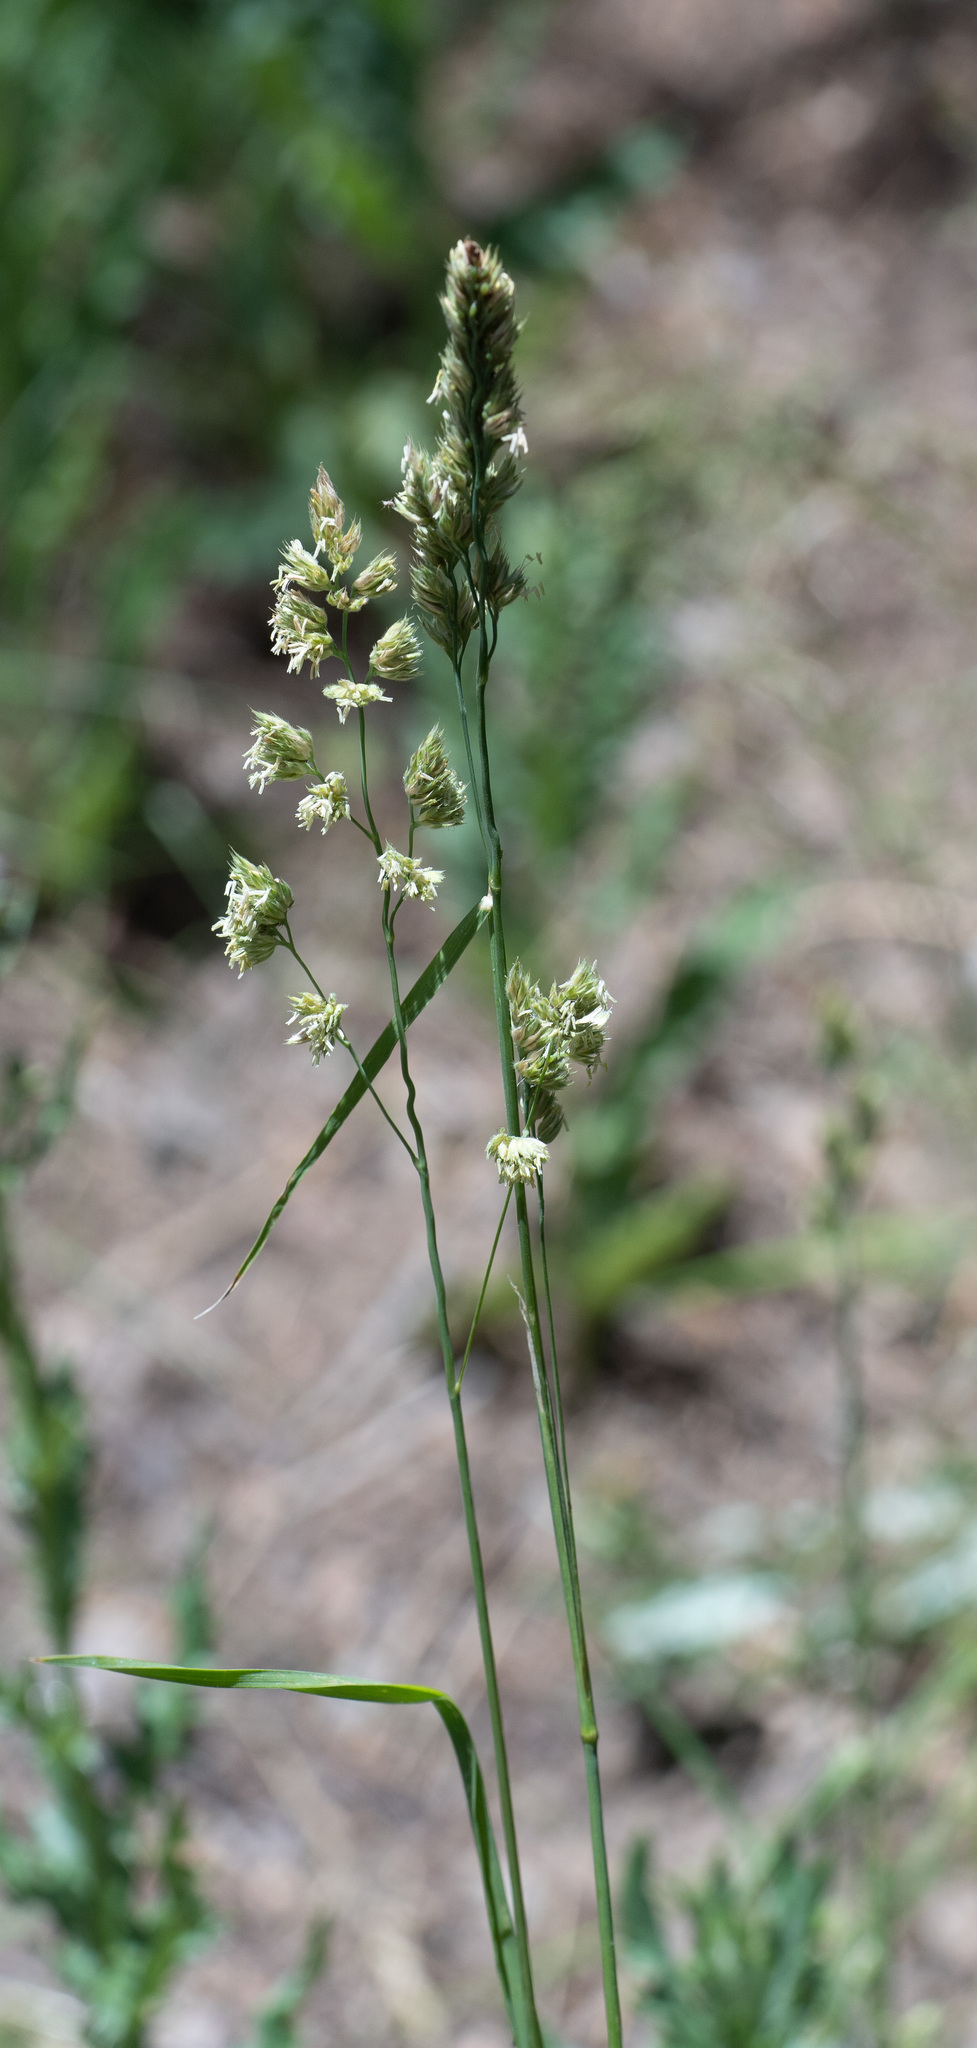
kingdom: Plantae
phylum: Tracheophyta
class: Liliopsida
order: Poales
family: Poaceae
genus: Dactylis
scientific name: Dactylis glomerata
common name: Orchardgrass
